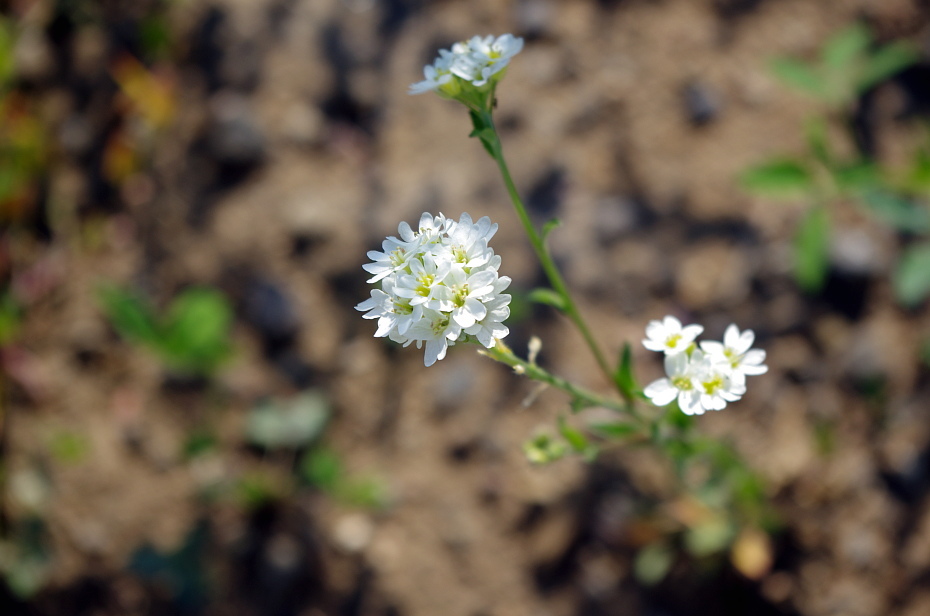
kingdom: Plantae
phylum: Tracheophyta
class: Magnoliopsida
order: Brassicales
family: Brassicaceae
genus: Berteroa
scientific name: Berteroa incana
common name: Hoary alison
